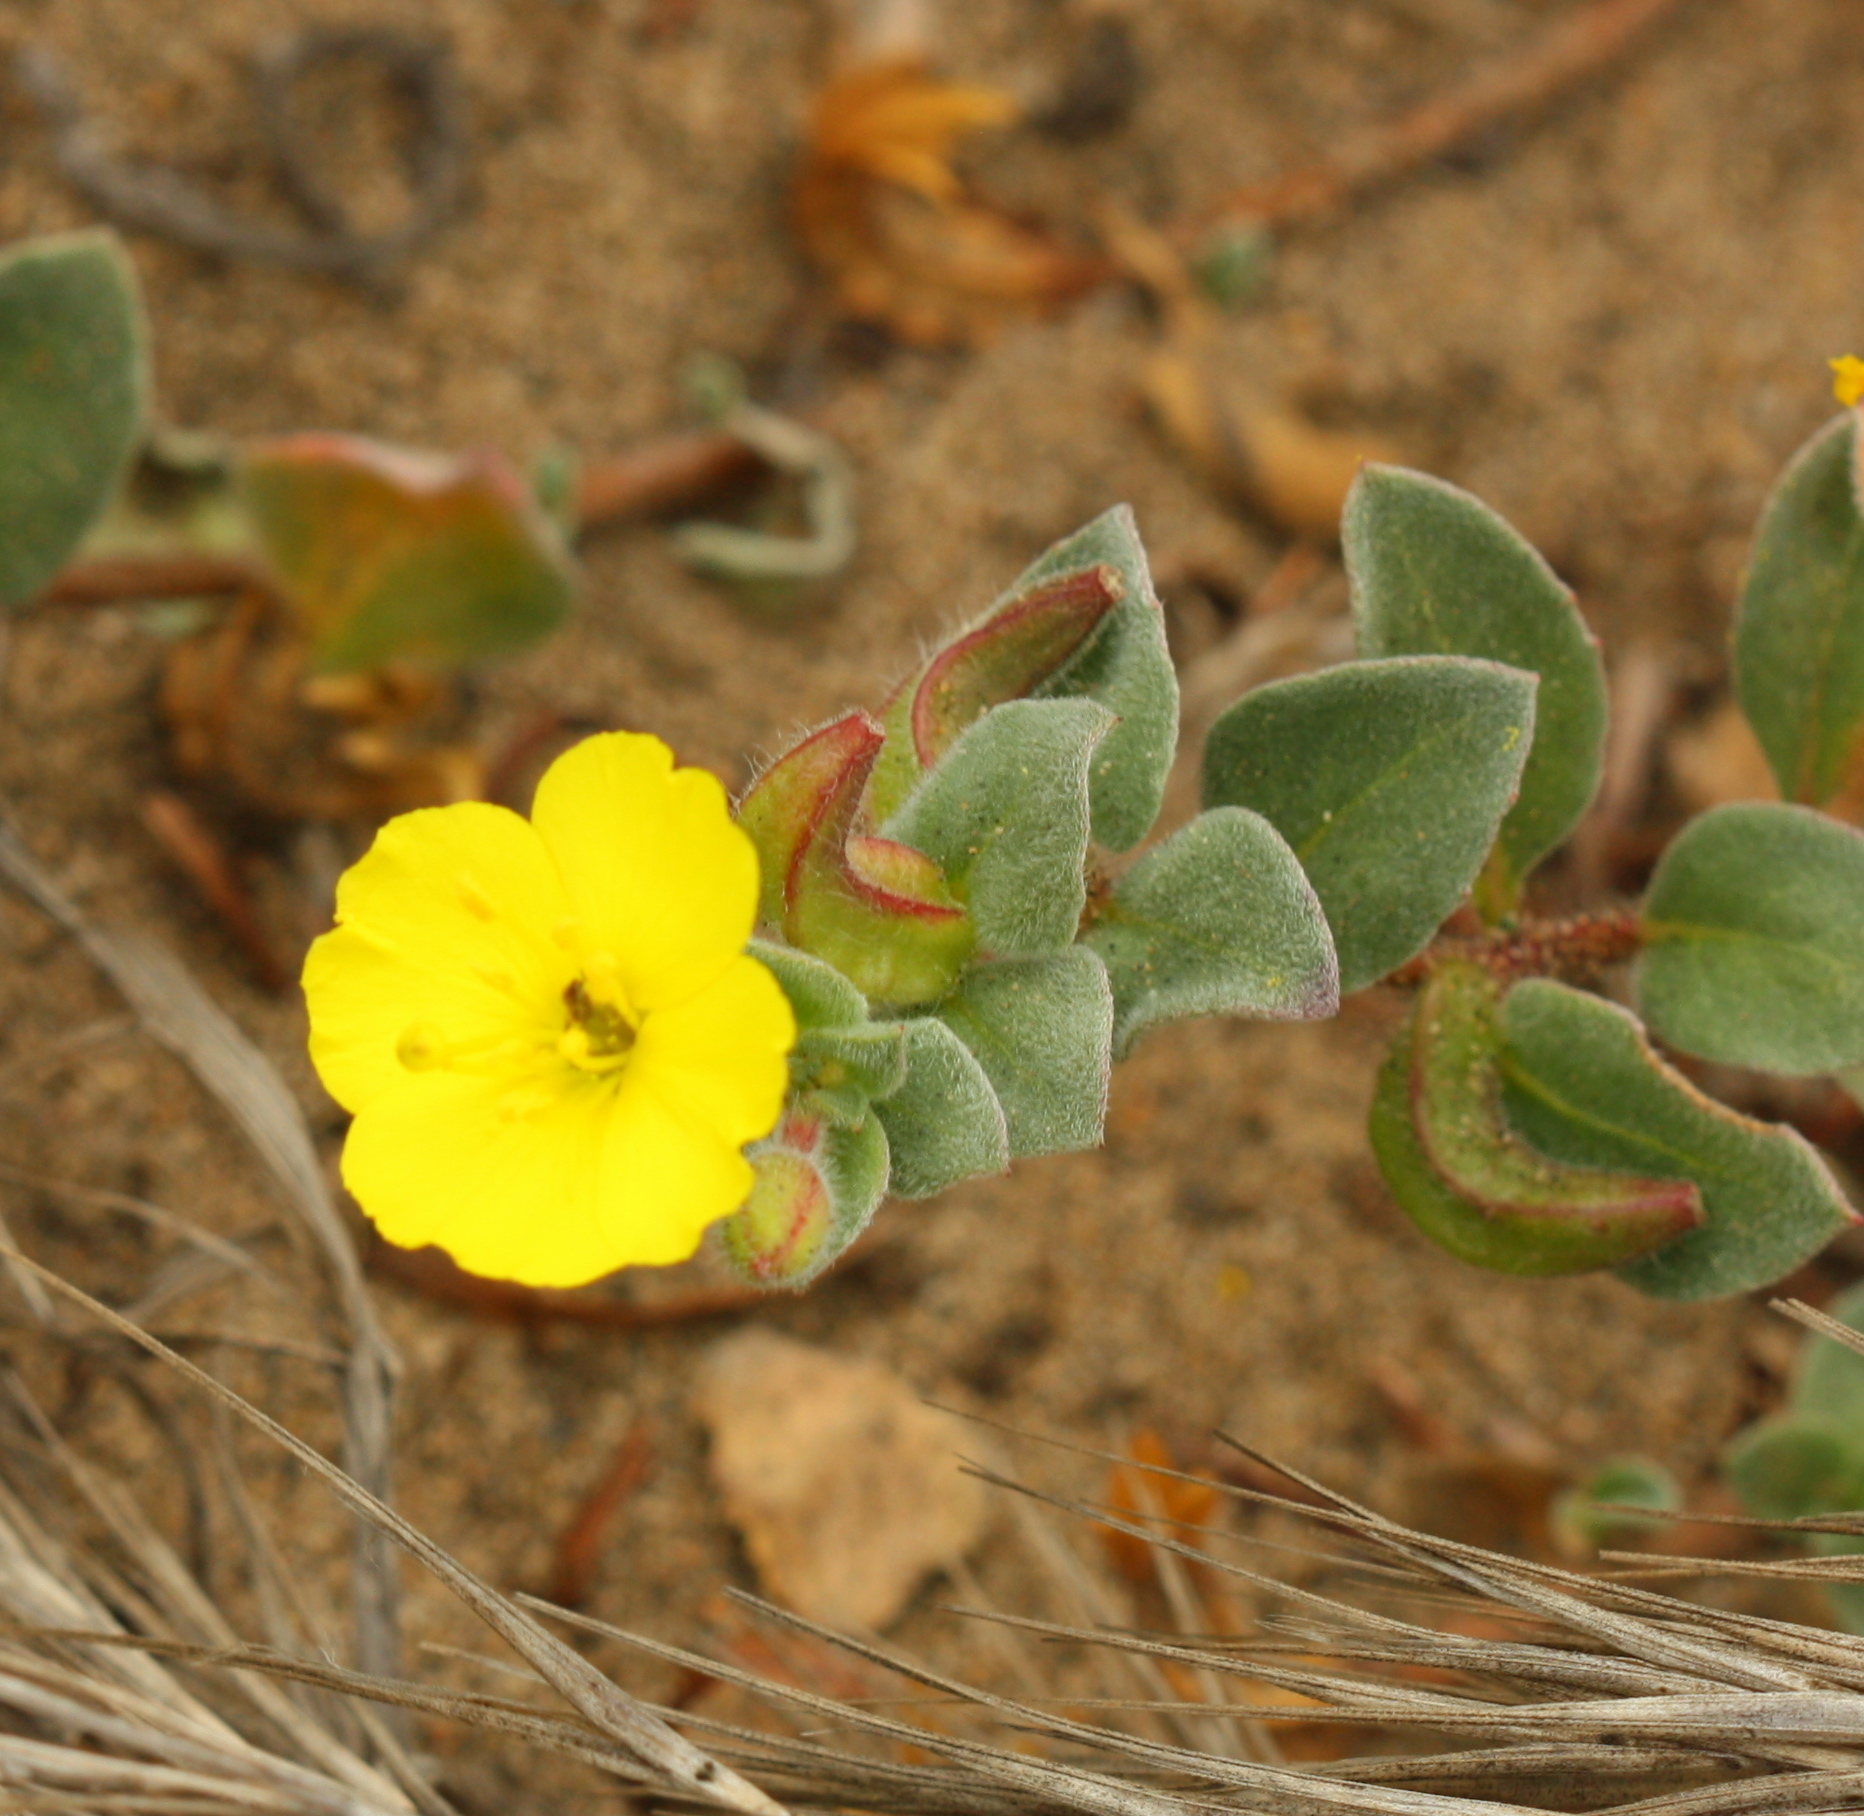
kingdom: Plantae
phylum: Tracheophyta
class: Magnoliopsida
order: Myrtales
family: Onagraceae
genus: Camissoniopsis
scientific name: Camissoniopsis cheiranthifolia
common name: Beach suncup
